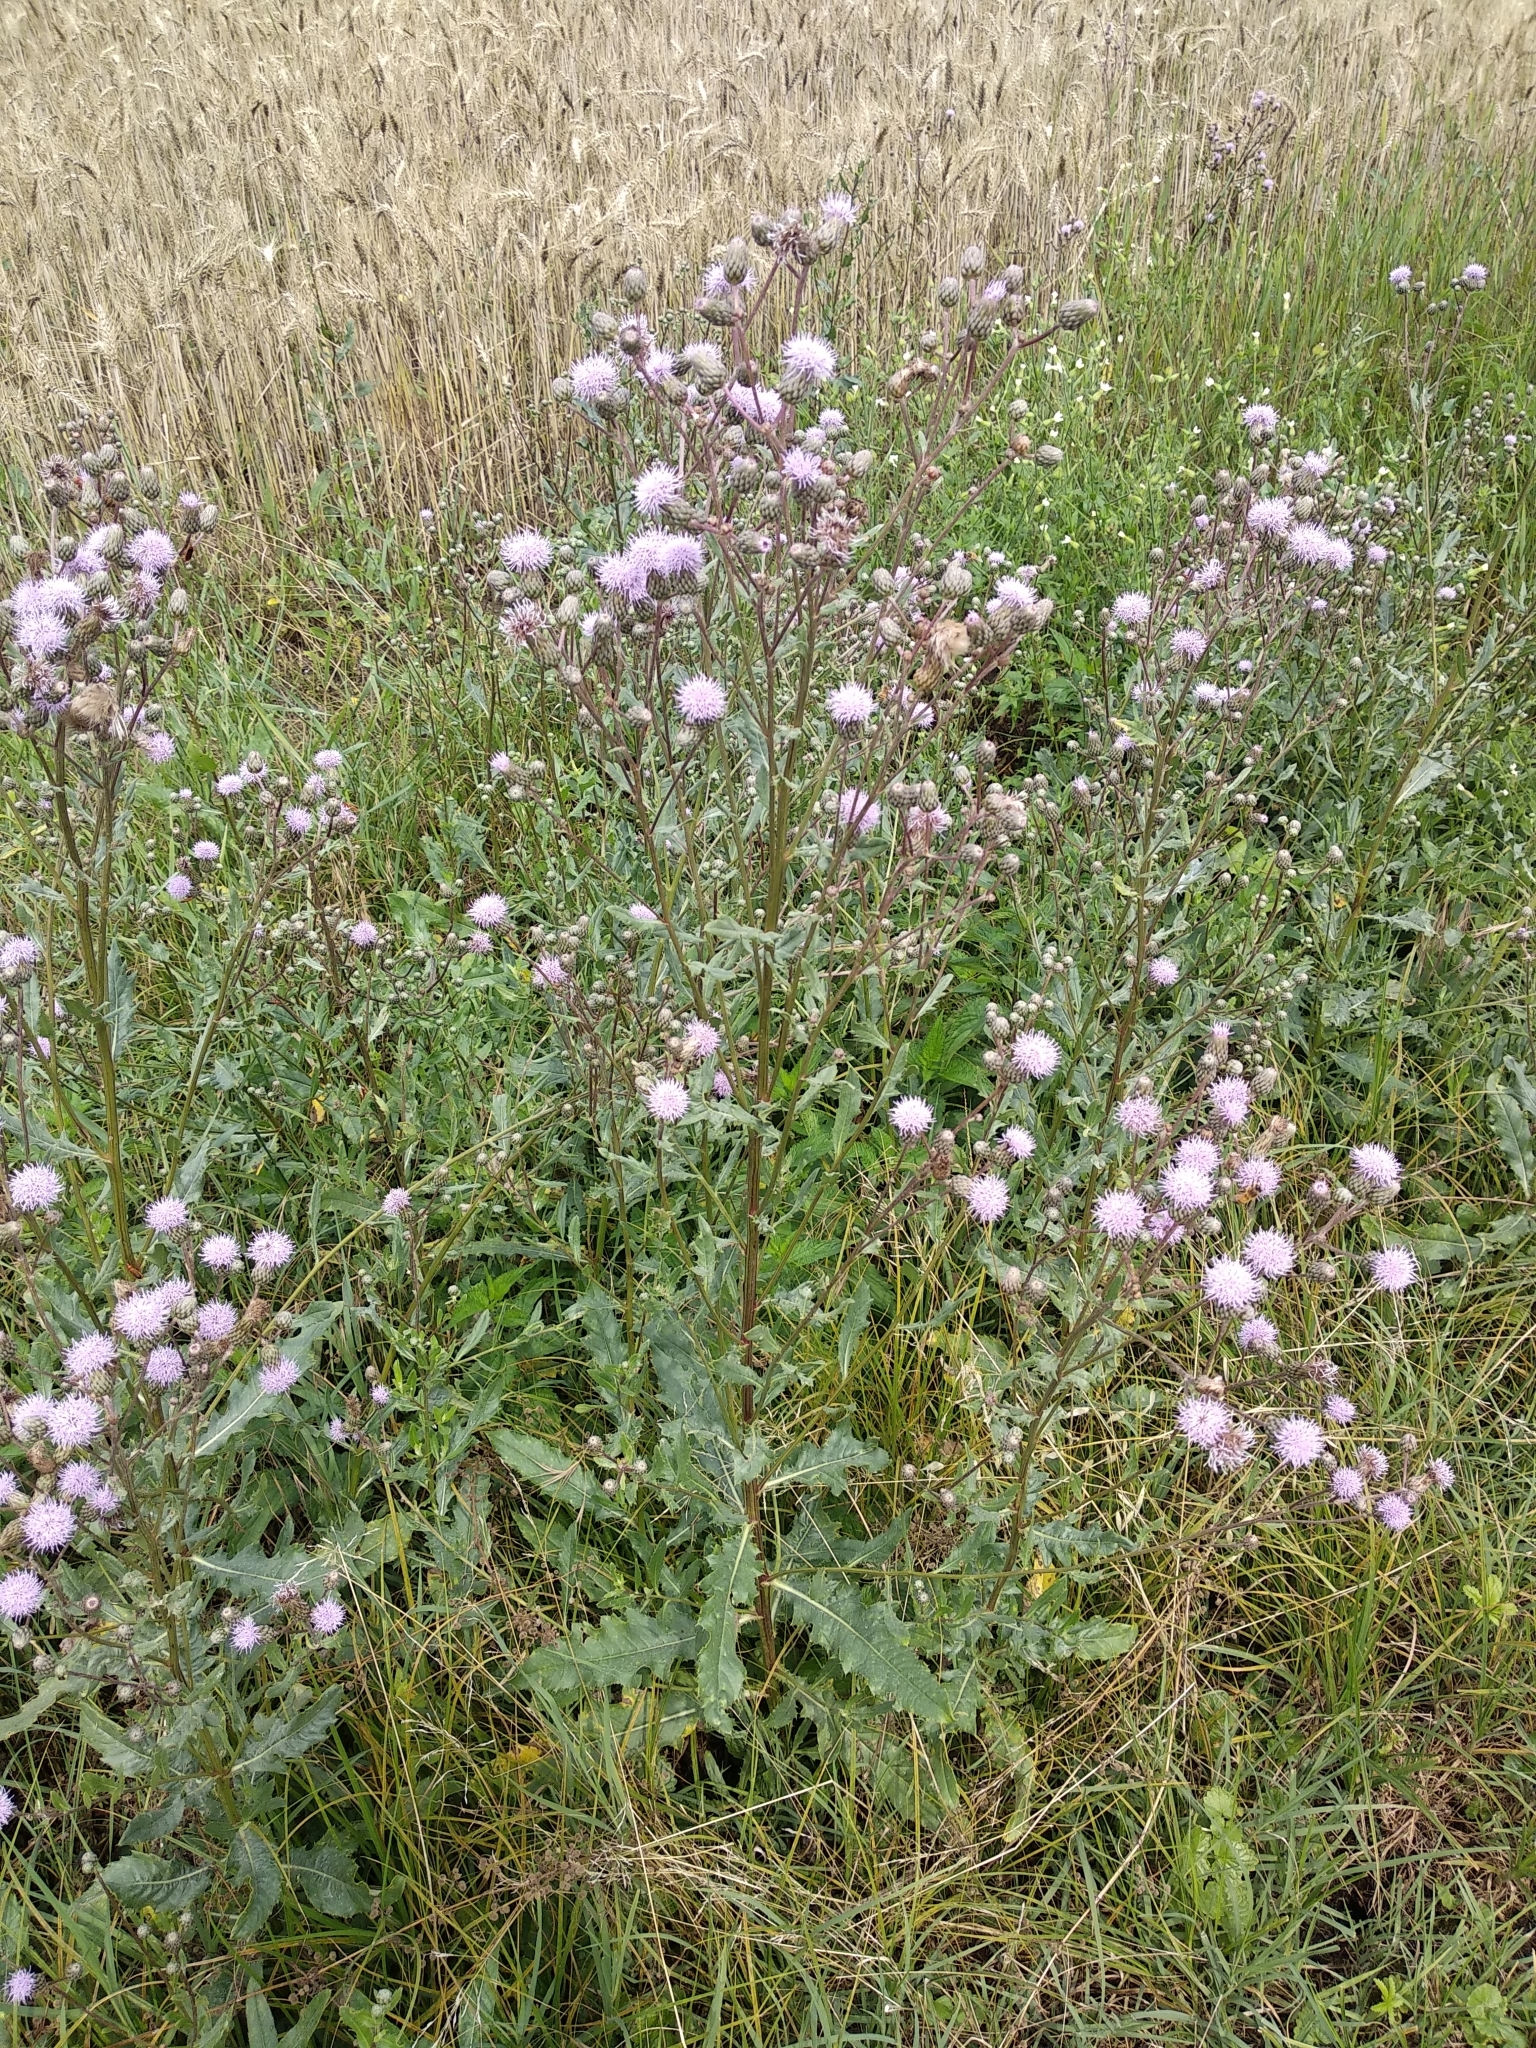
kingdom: Plantae
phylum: Tracheophyta
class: Magnoliopsida
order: Asterales
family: Asteraceae
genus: Cirsium
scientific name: Cirsium arvense
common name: Creeping thistle
